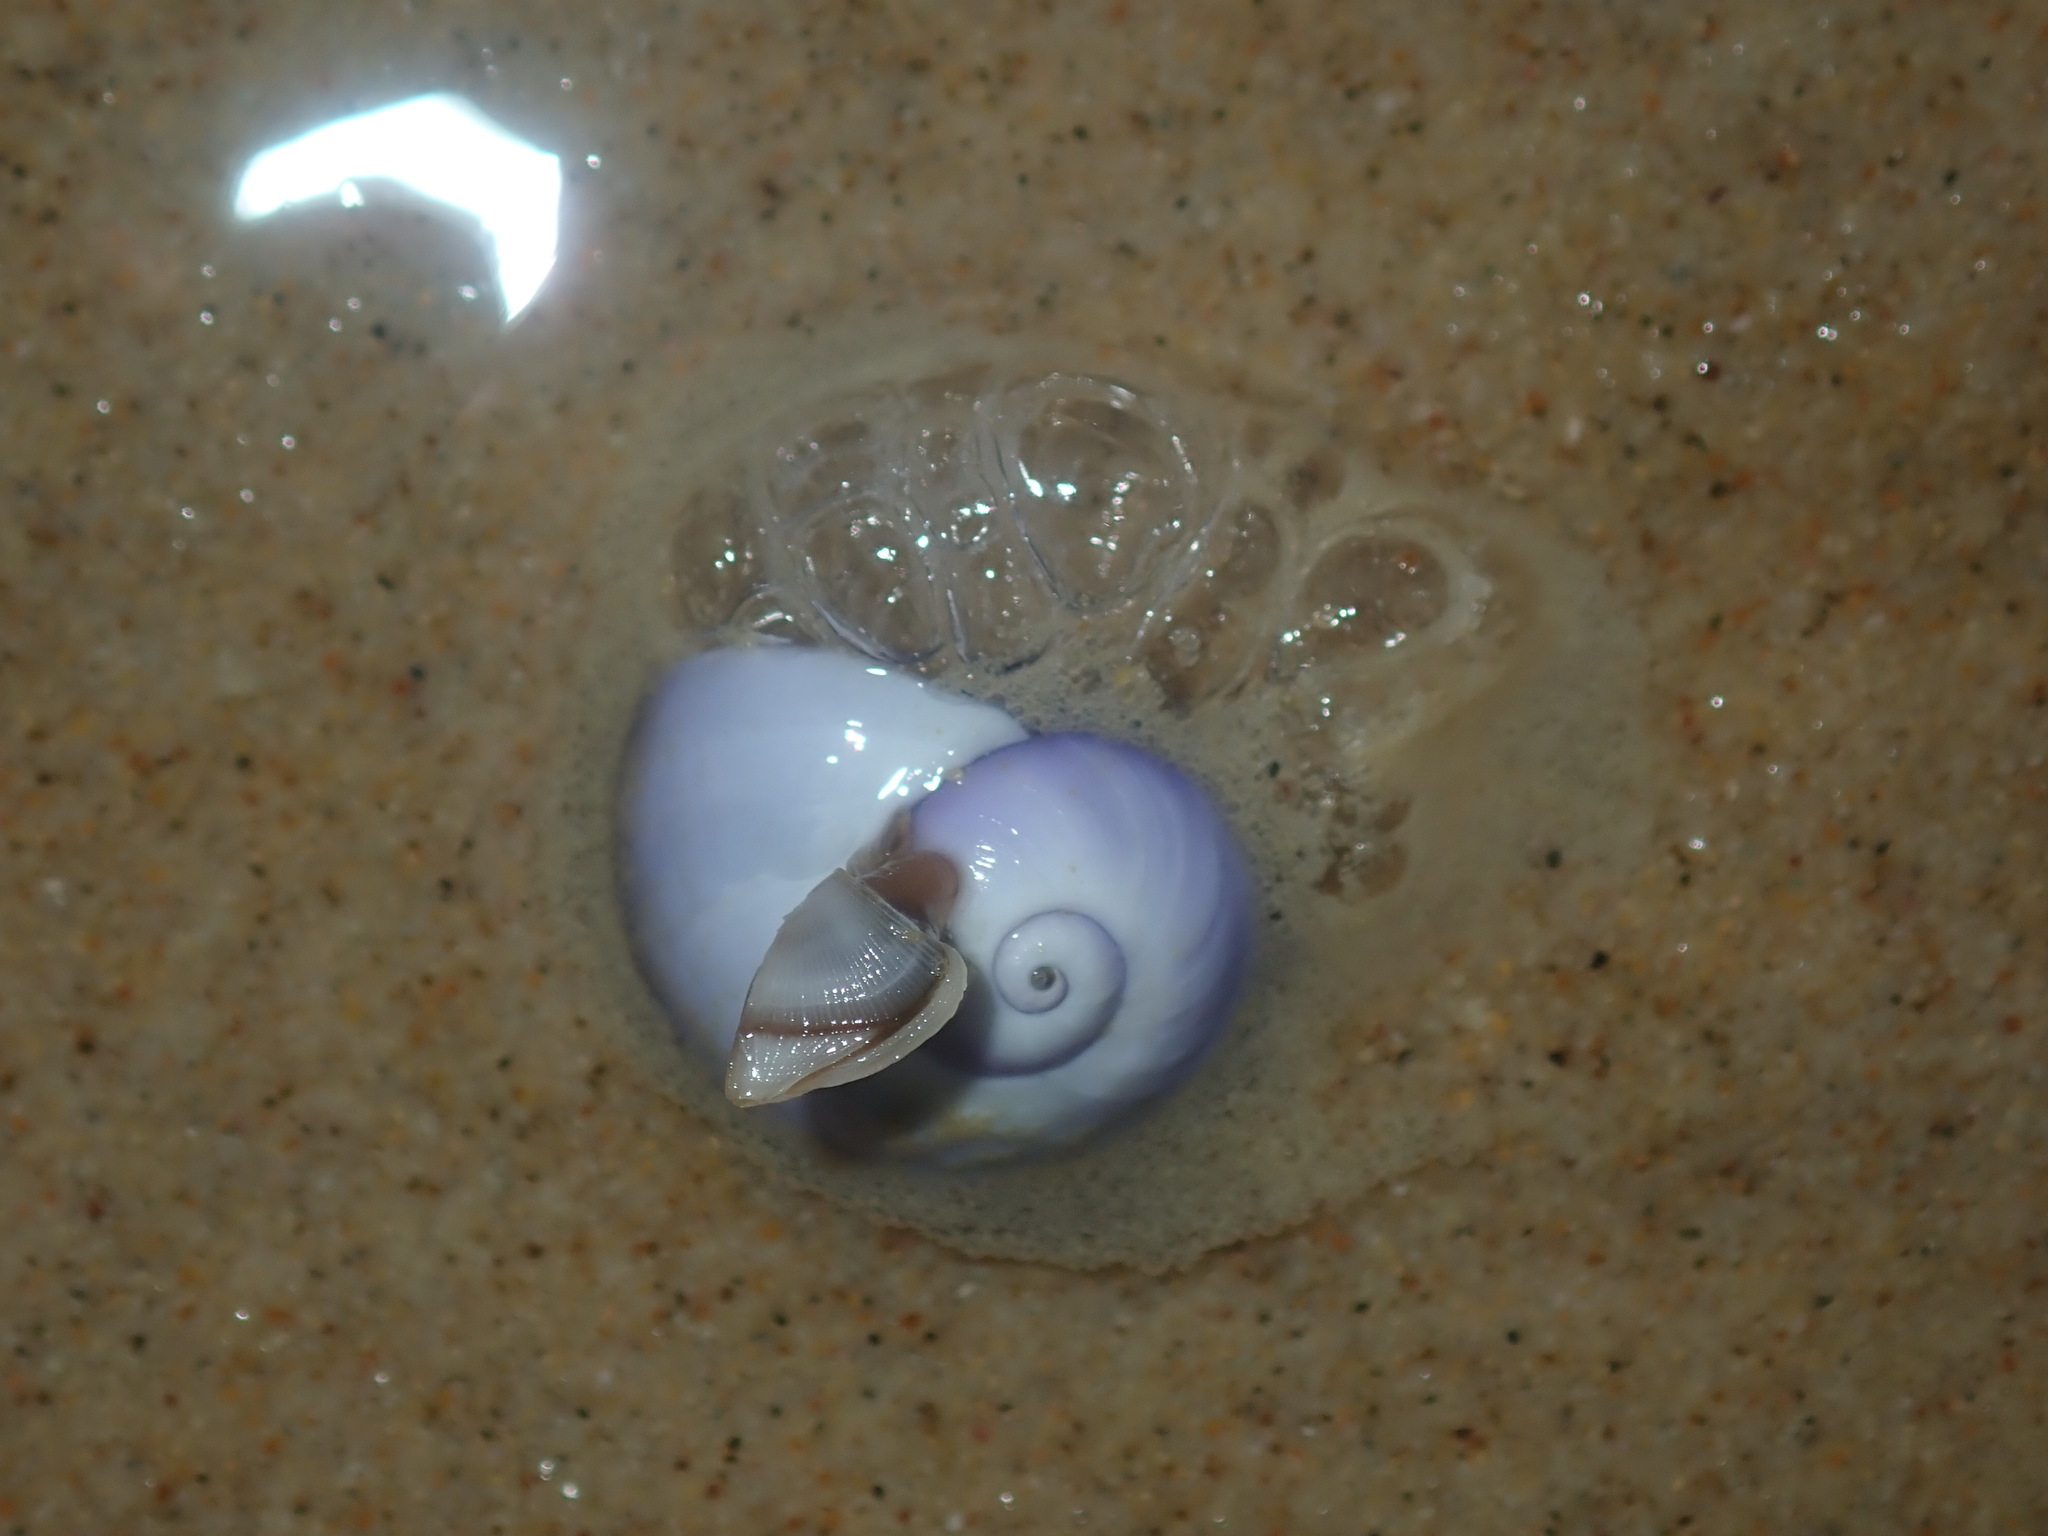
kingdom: Animalia
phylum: Mollusca
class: Gastropoda
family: Epitoniidae
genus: Janthina
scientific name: Janthina janthina
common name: Common janthina
